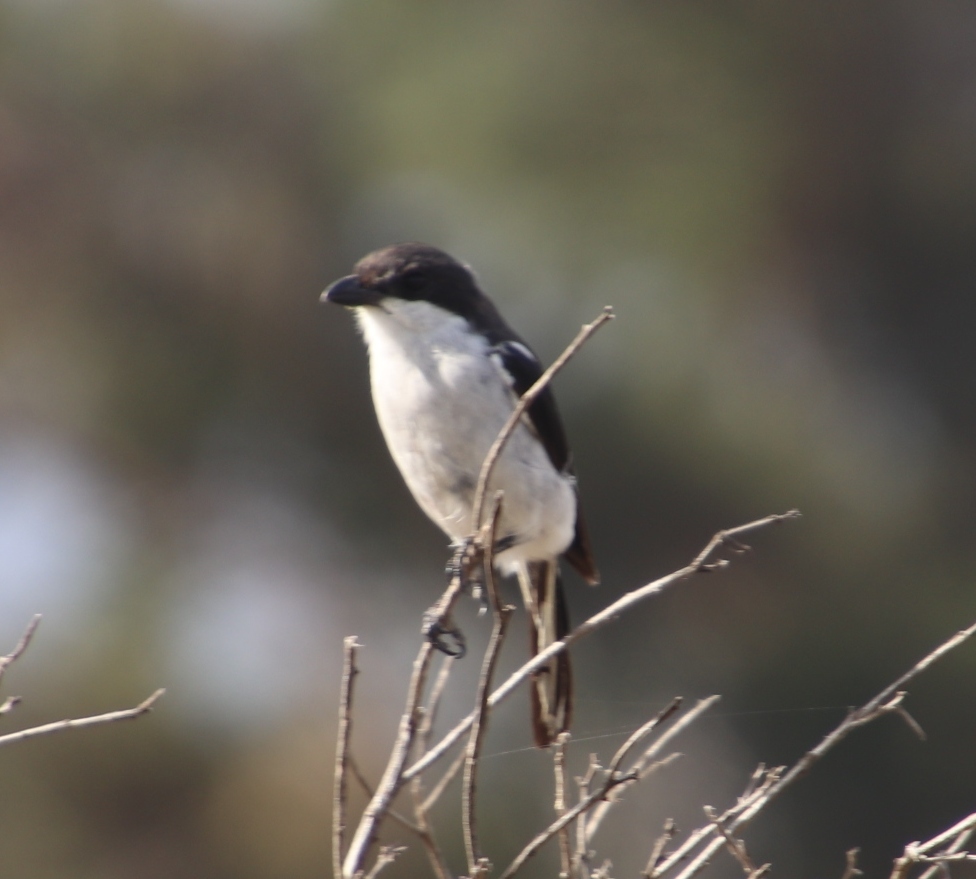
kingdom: Animalia
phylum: Chordata
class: Aves
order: Passeriformes
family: Laniidae
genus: Lanius
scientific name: Lanius collaris
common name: Southern fiscal
